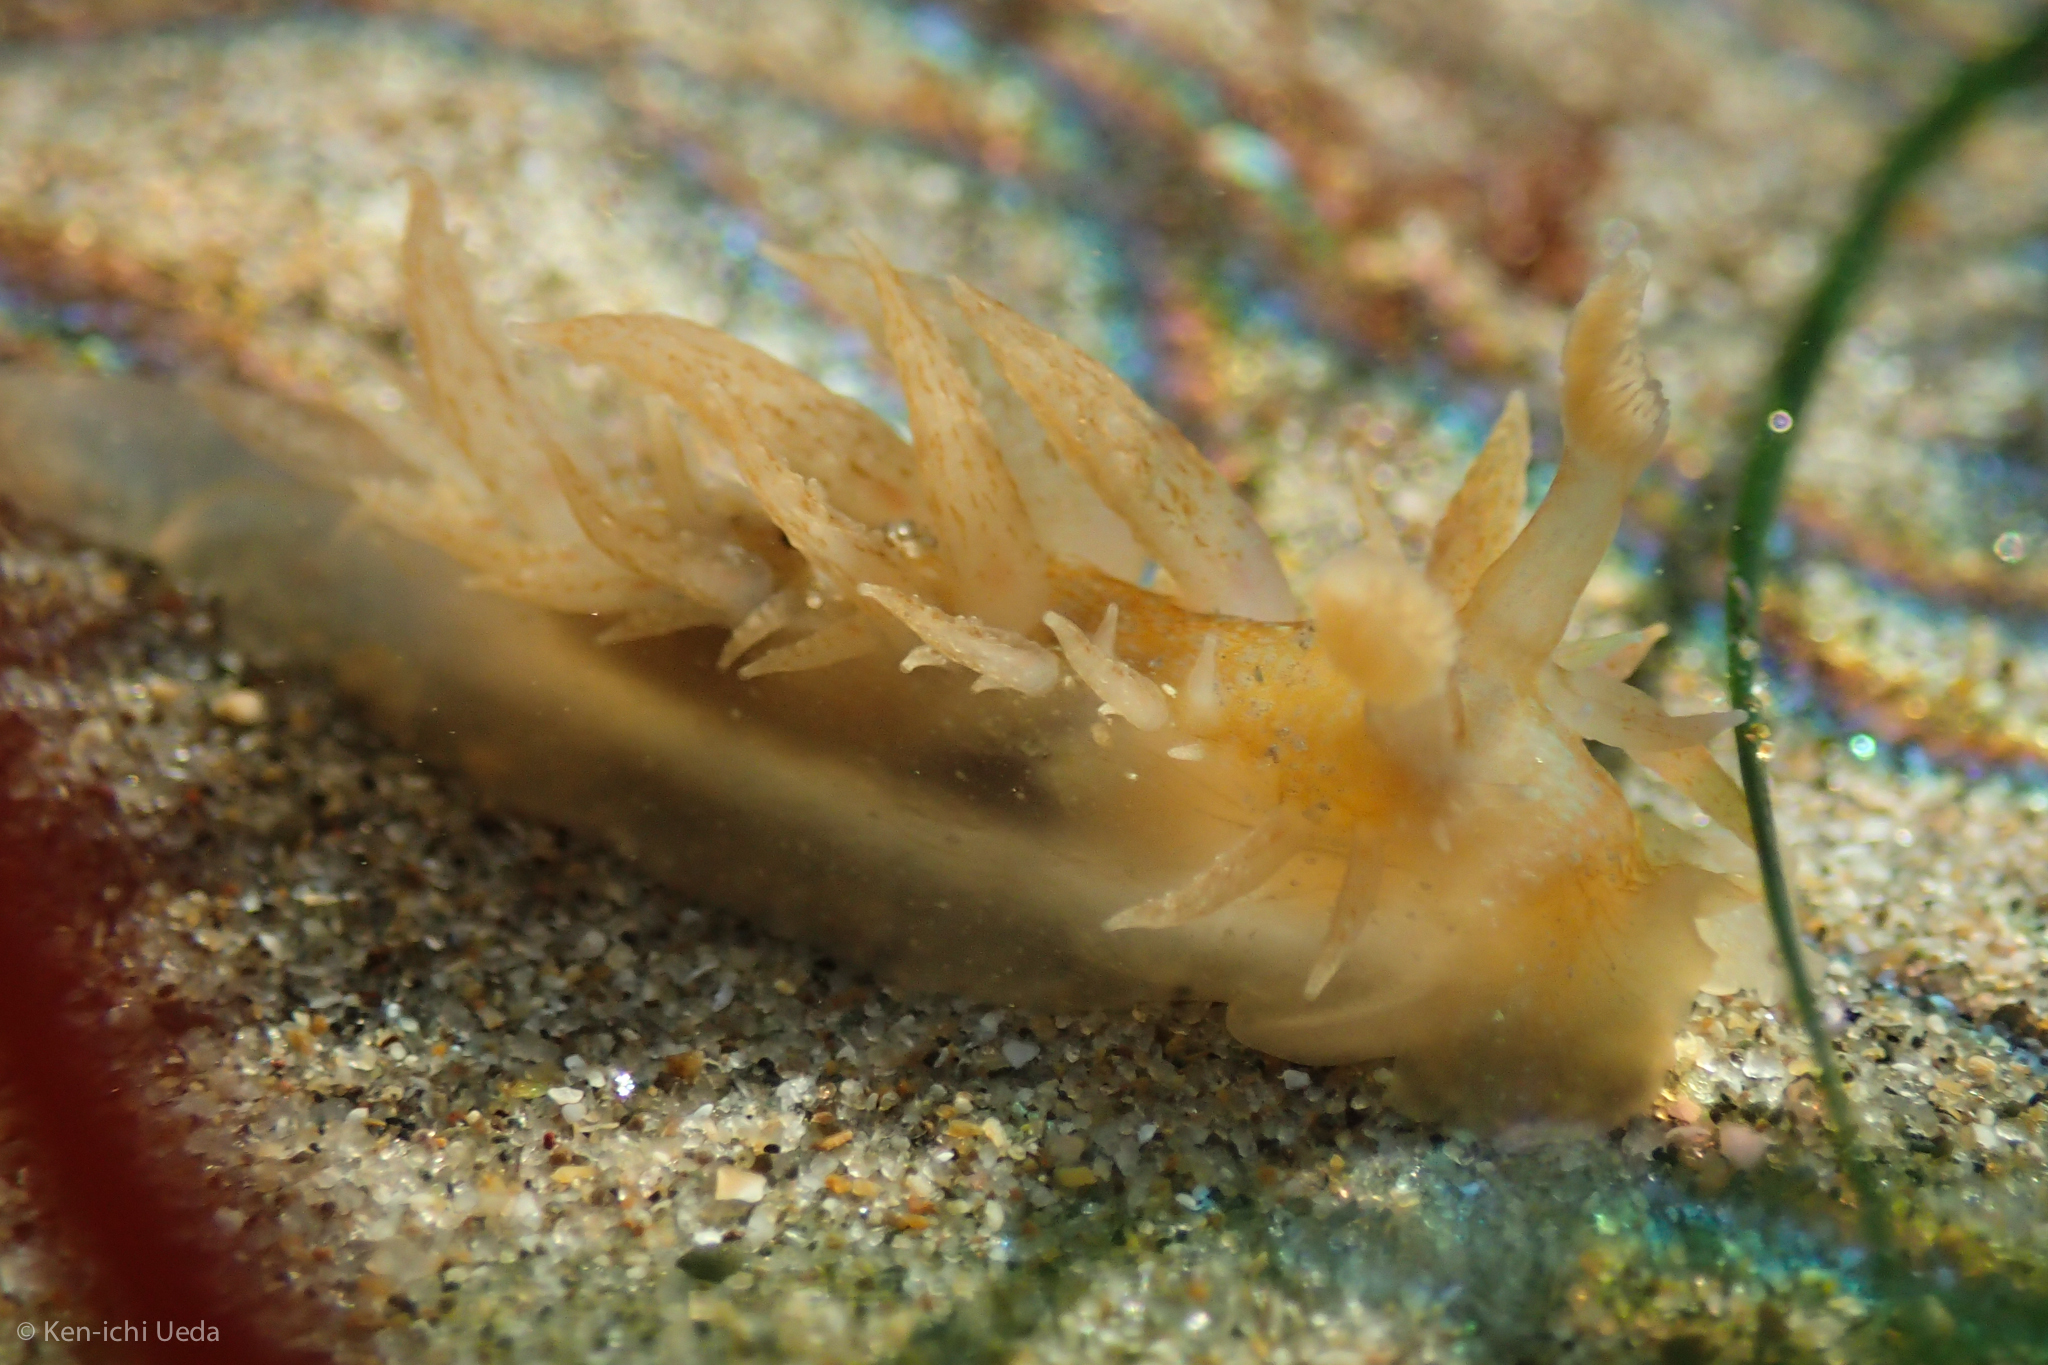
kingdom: Animalia
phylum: Mollusca
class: Gastropoda
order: Nudibranchia
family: Dironidae
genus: Dirona
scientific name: Dirona picta
